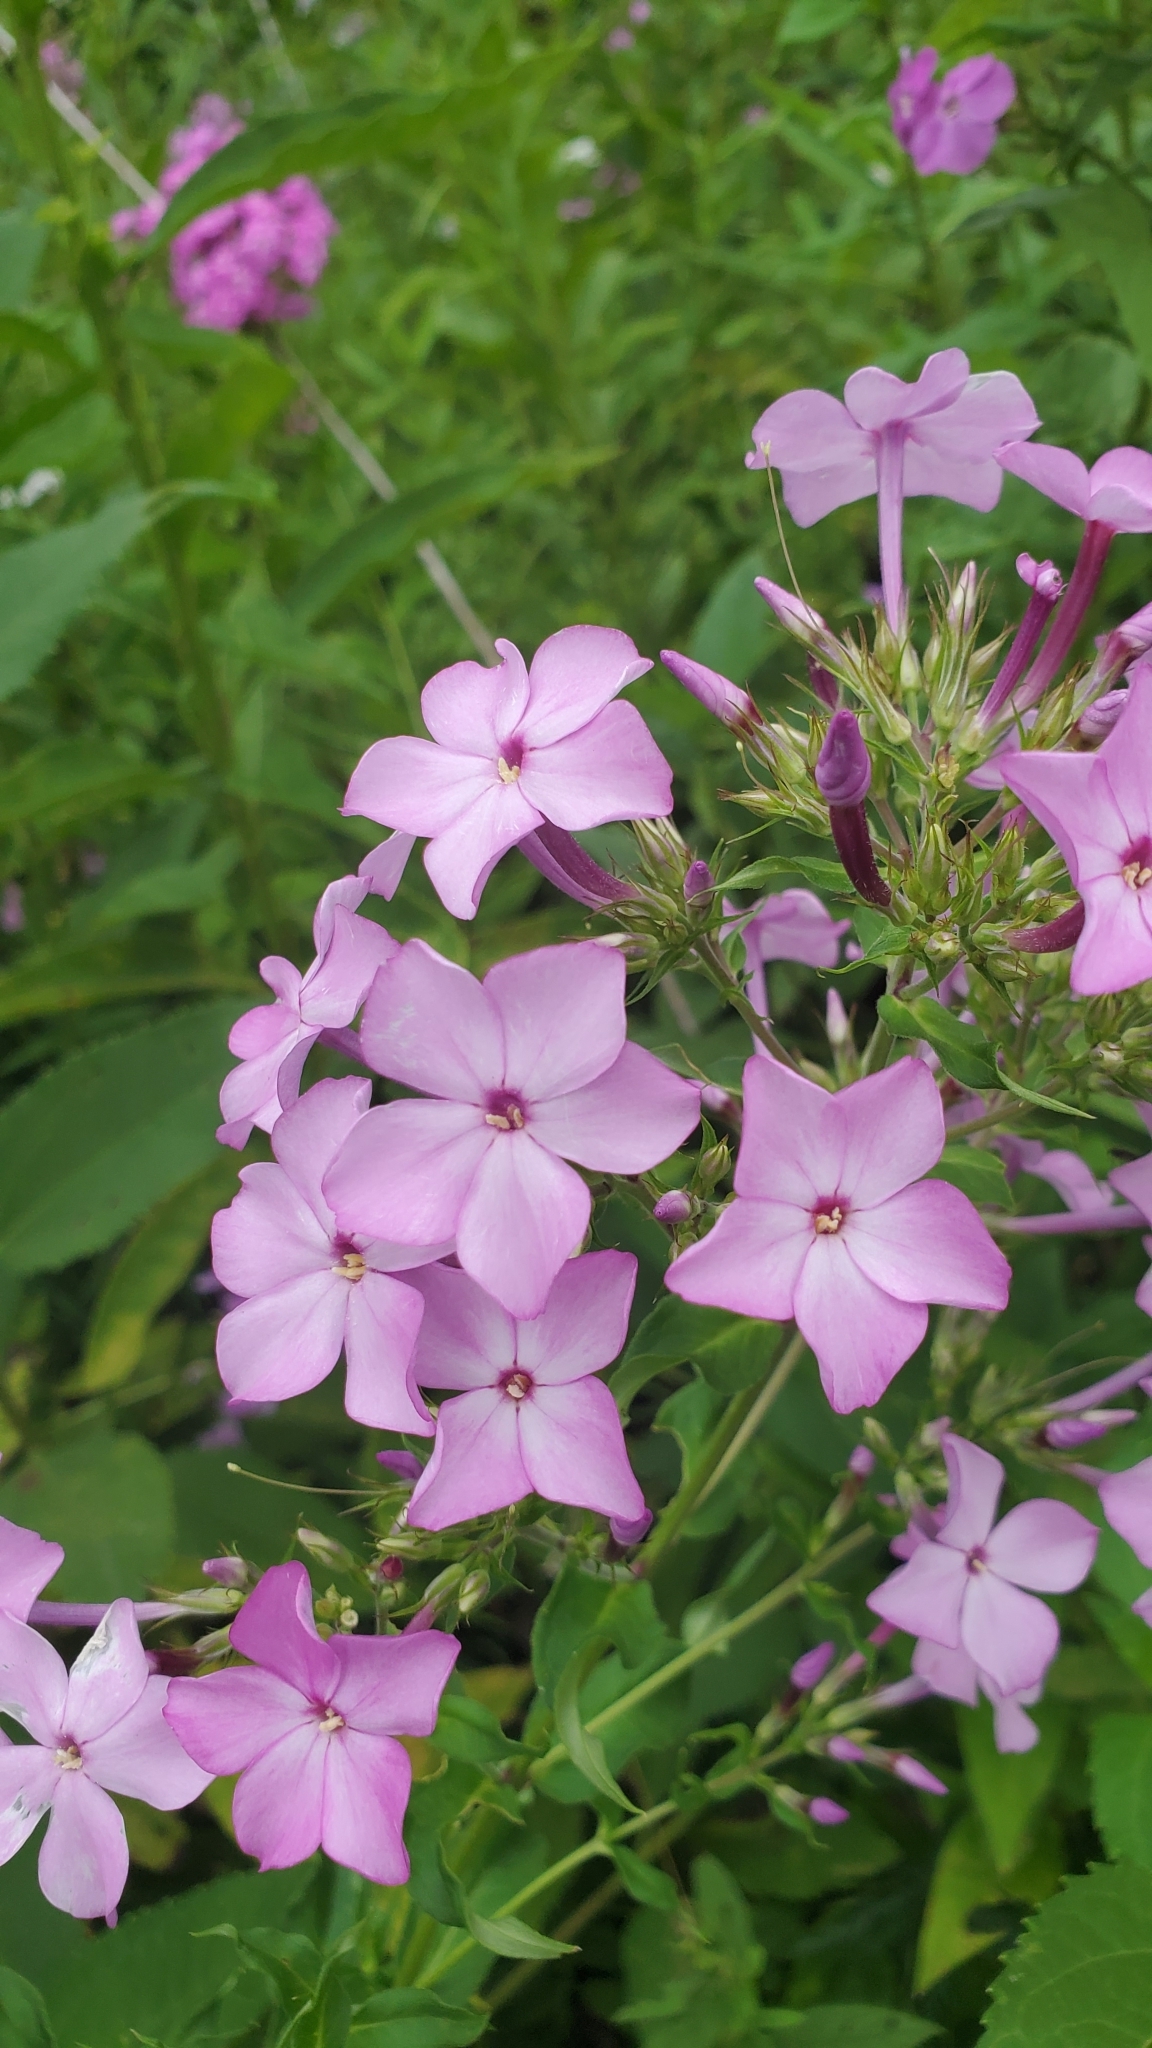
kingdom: Plantae
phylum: Tracheophyta
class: Magnoliopsida
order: Ericales
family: Polemoniaceae
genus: Phlox
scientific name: Phlox paniculata
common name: Fall phlox
